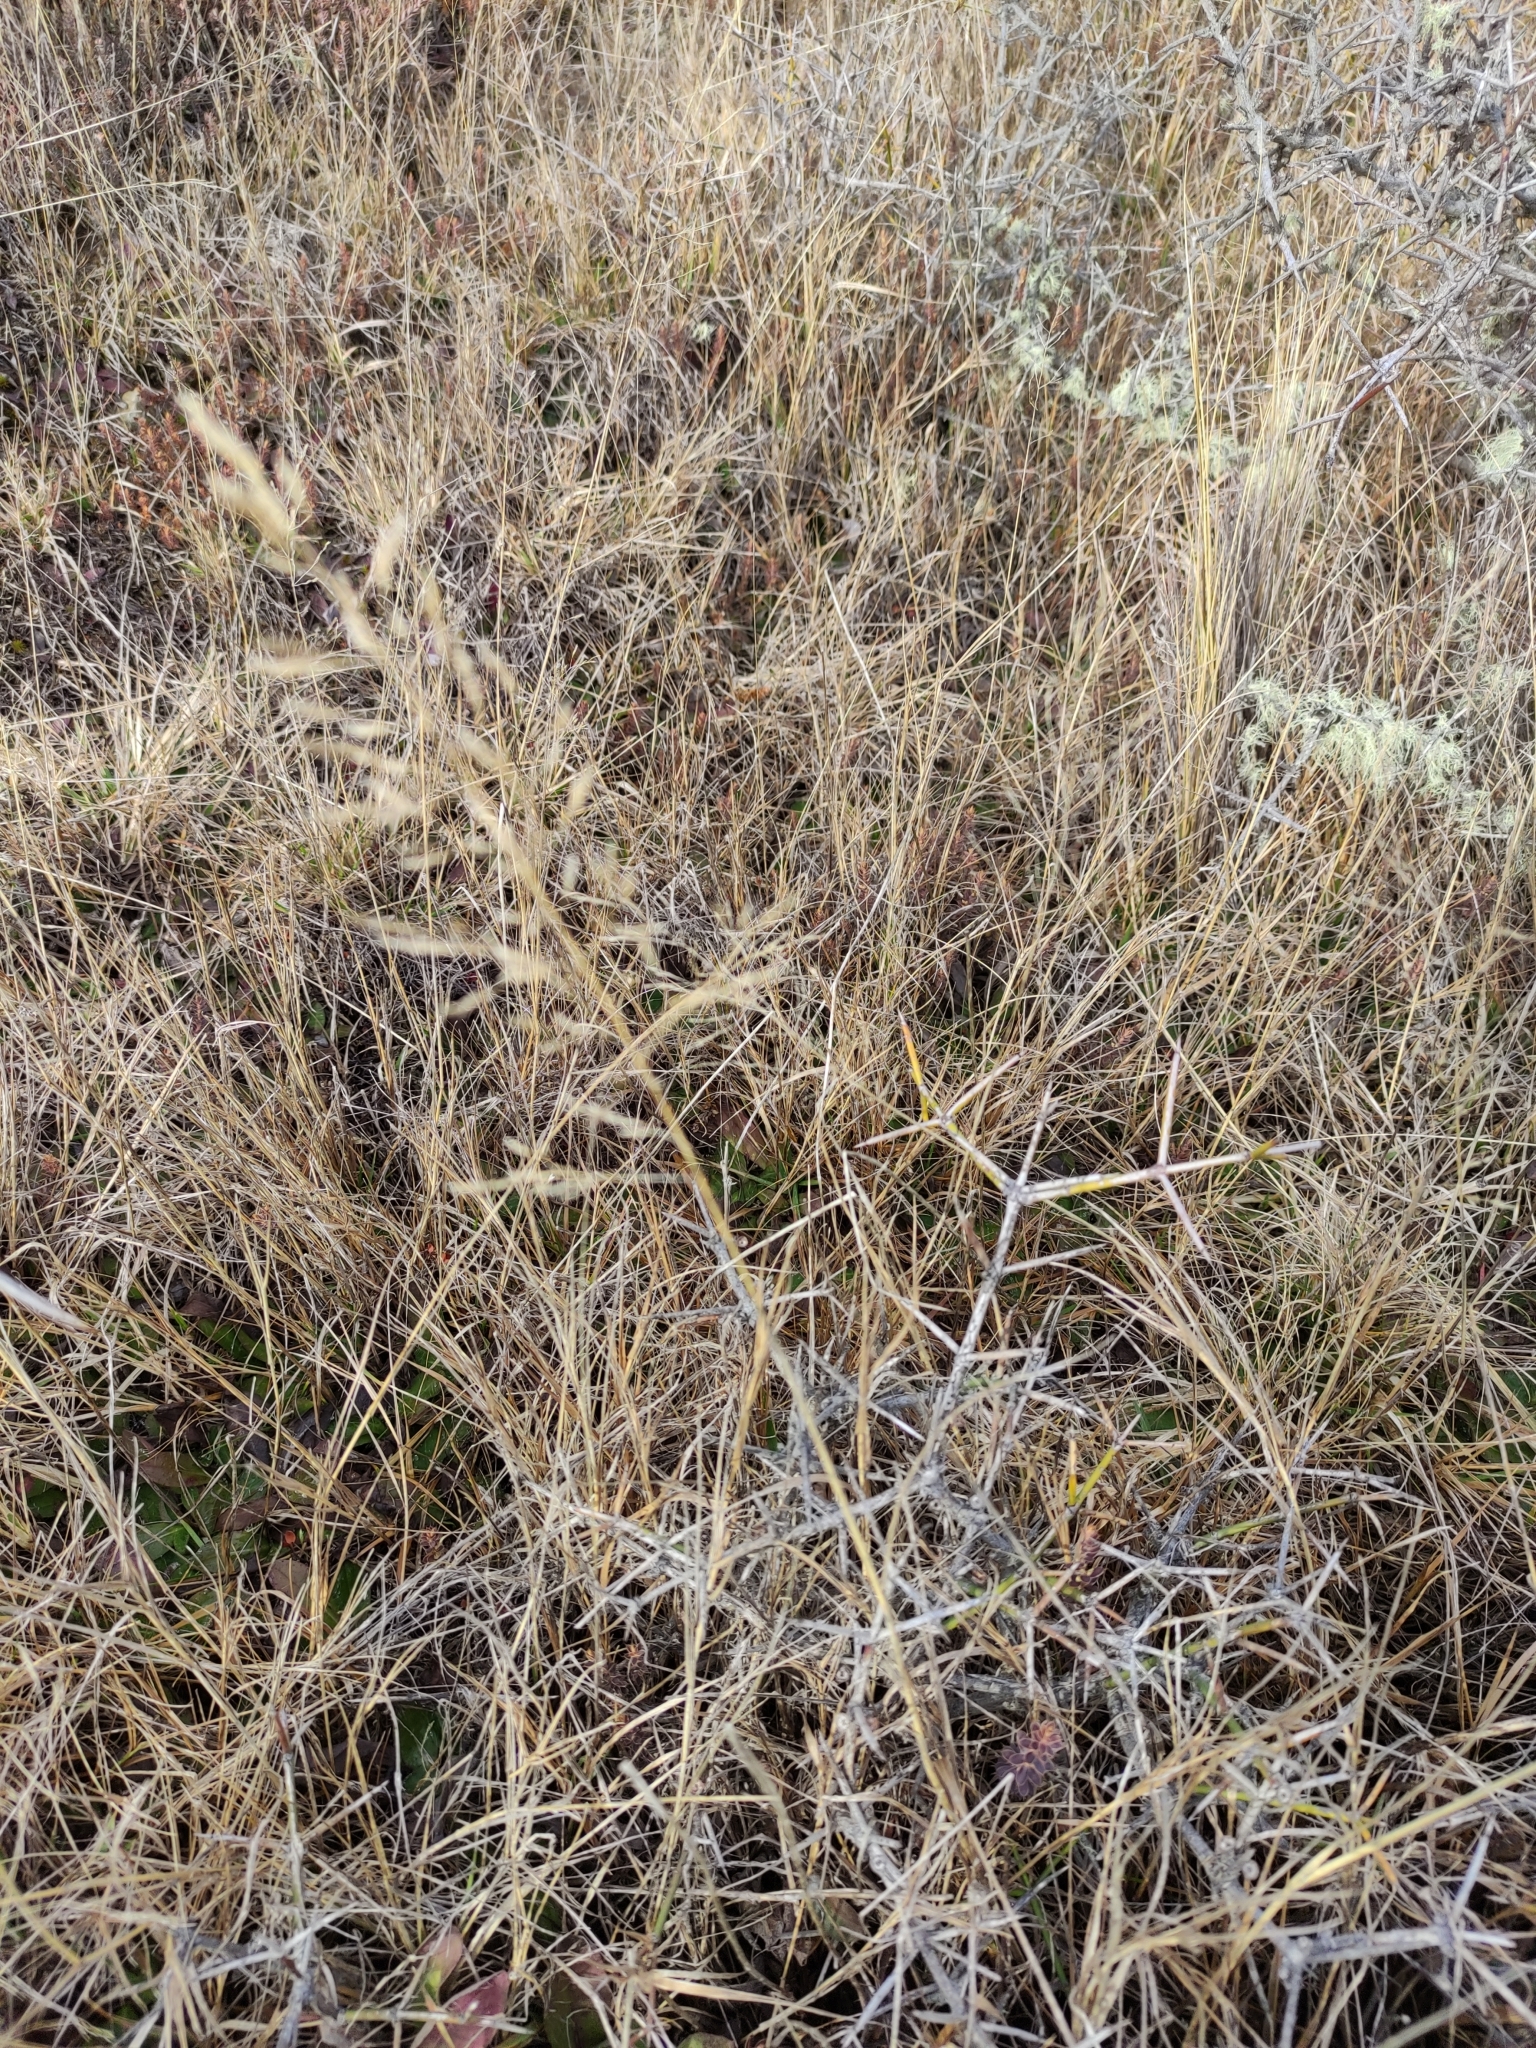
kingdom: Plantae
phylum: Tracheophyta
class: Liliopsida
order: Poales
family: Poaceae
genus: Agrostis
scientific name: Agrostis capillaris
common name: Colonial bentgrass
